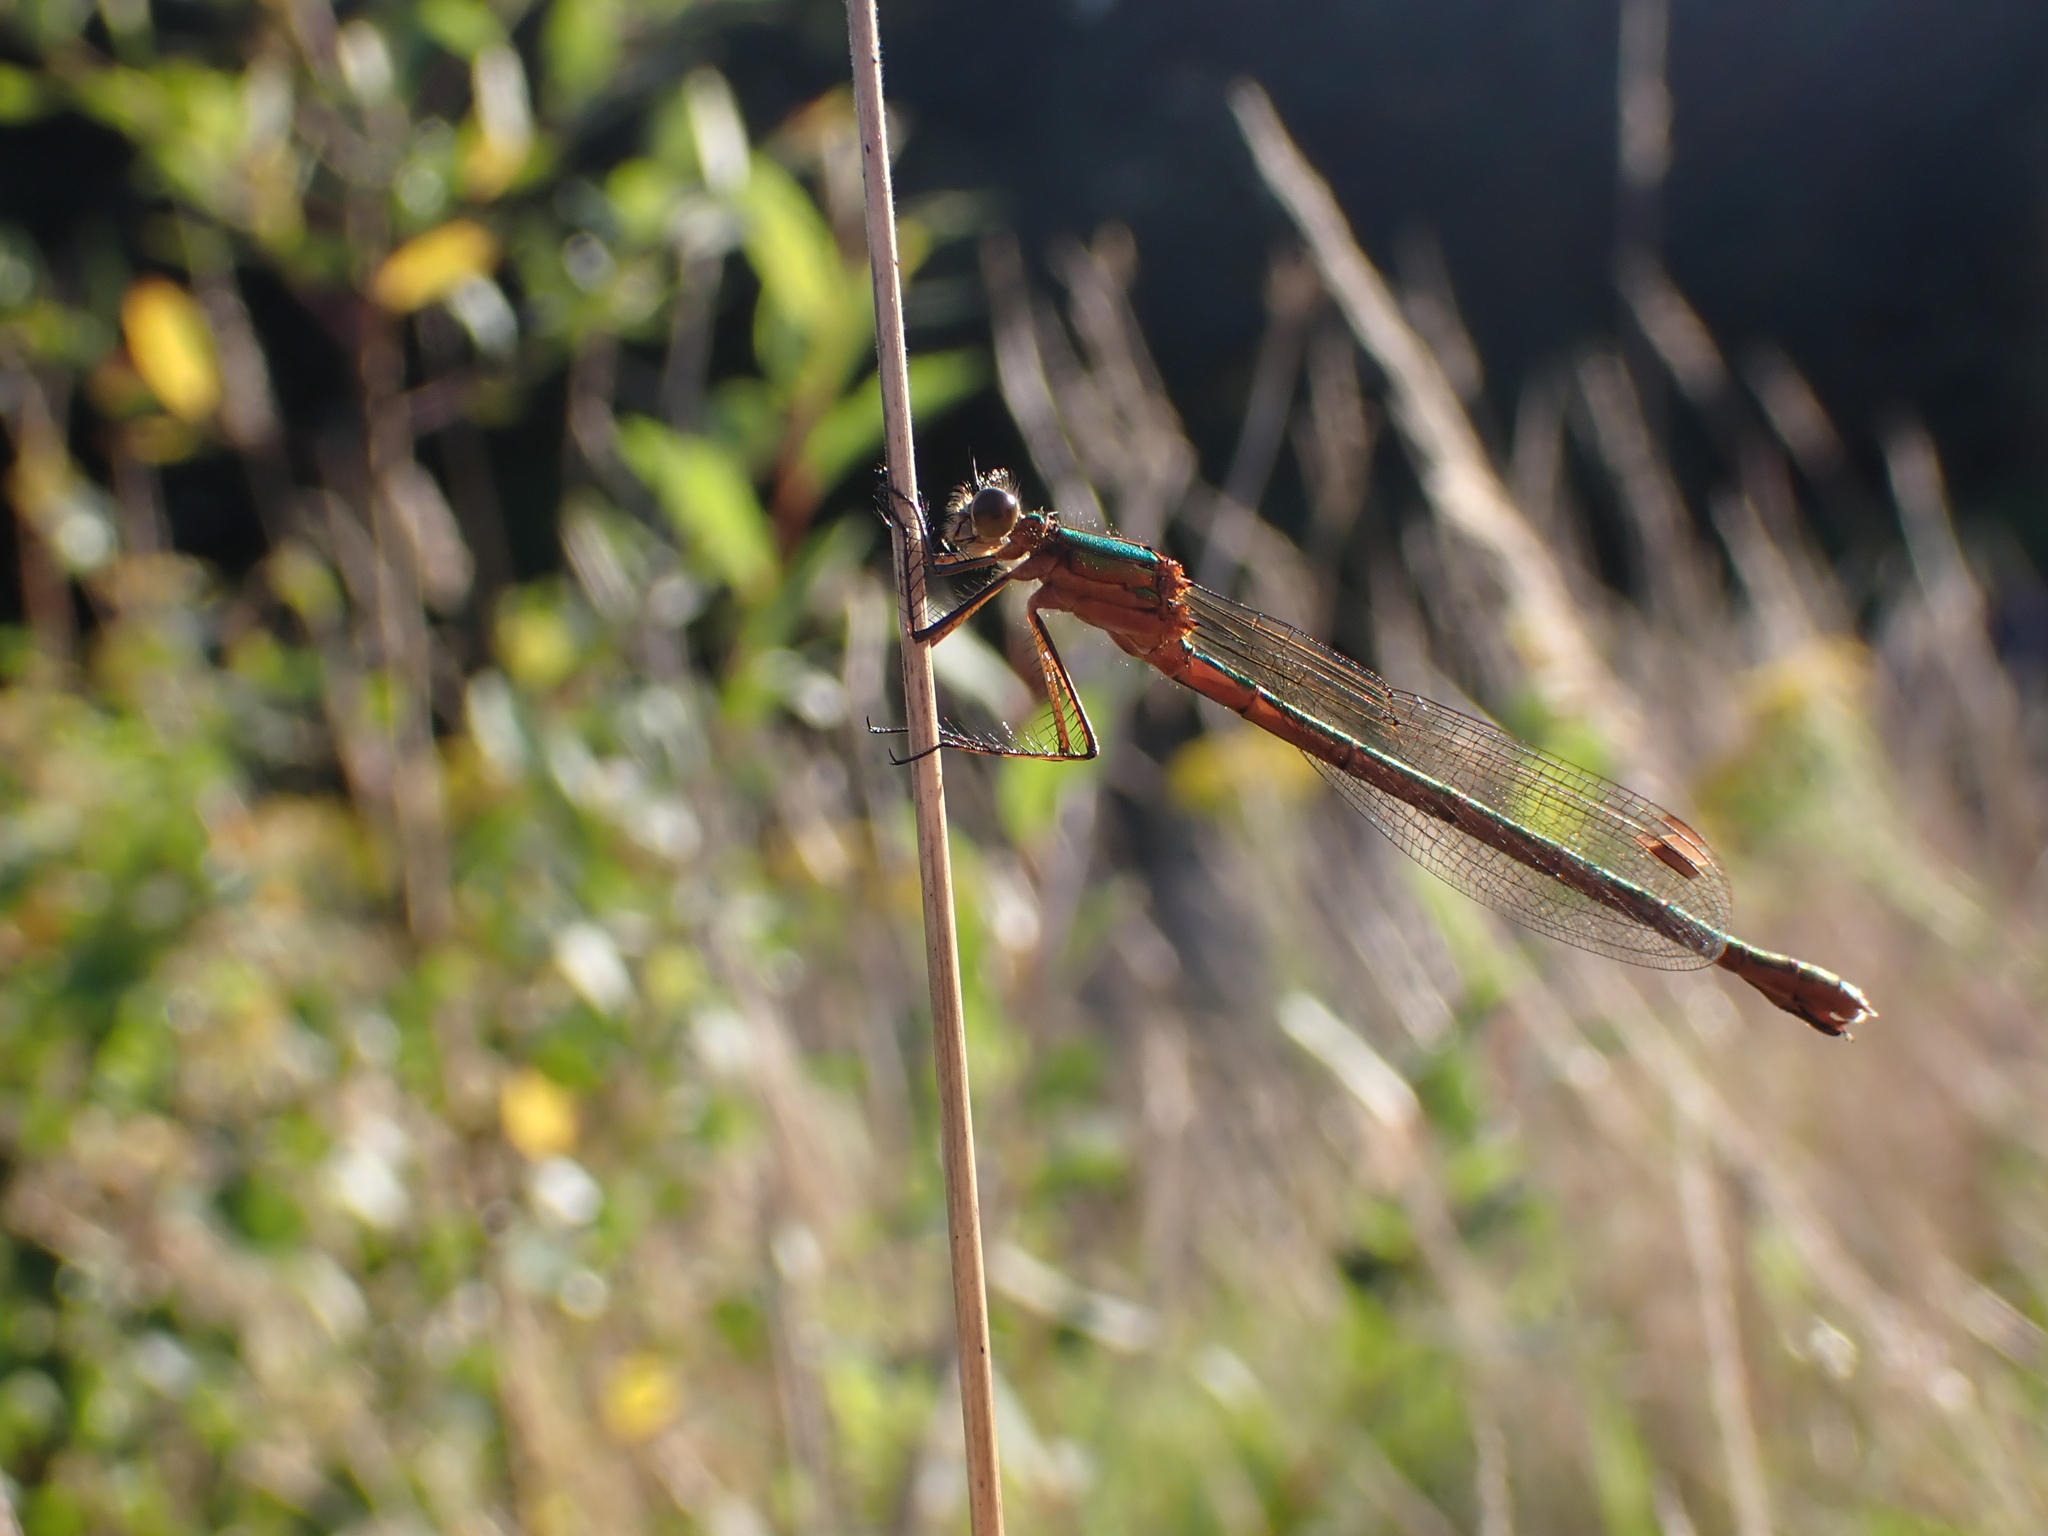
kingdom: Animalia
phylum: Arthropoda
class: Insecta
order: Odonata
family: Lestidae
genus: Lestes
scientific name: Lestes sponsa
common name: Common spreadwing
